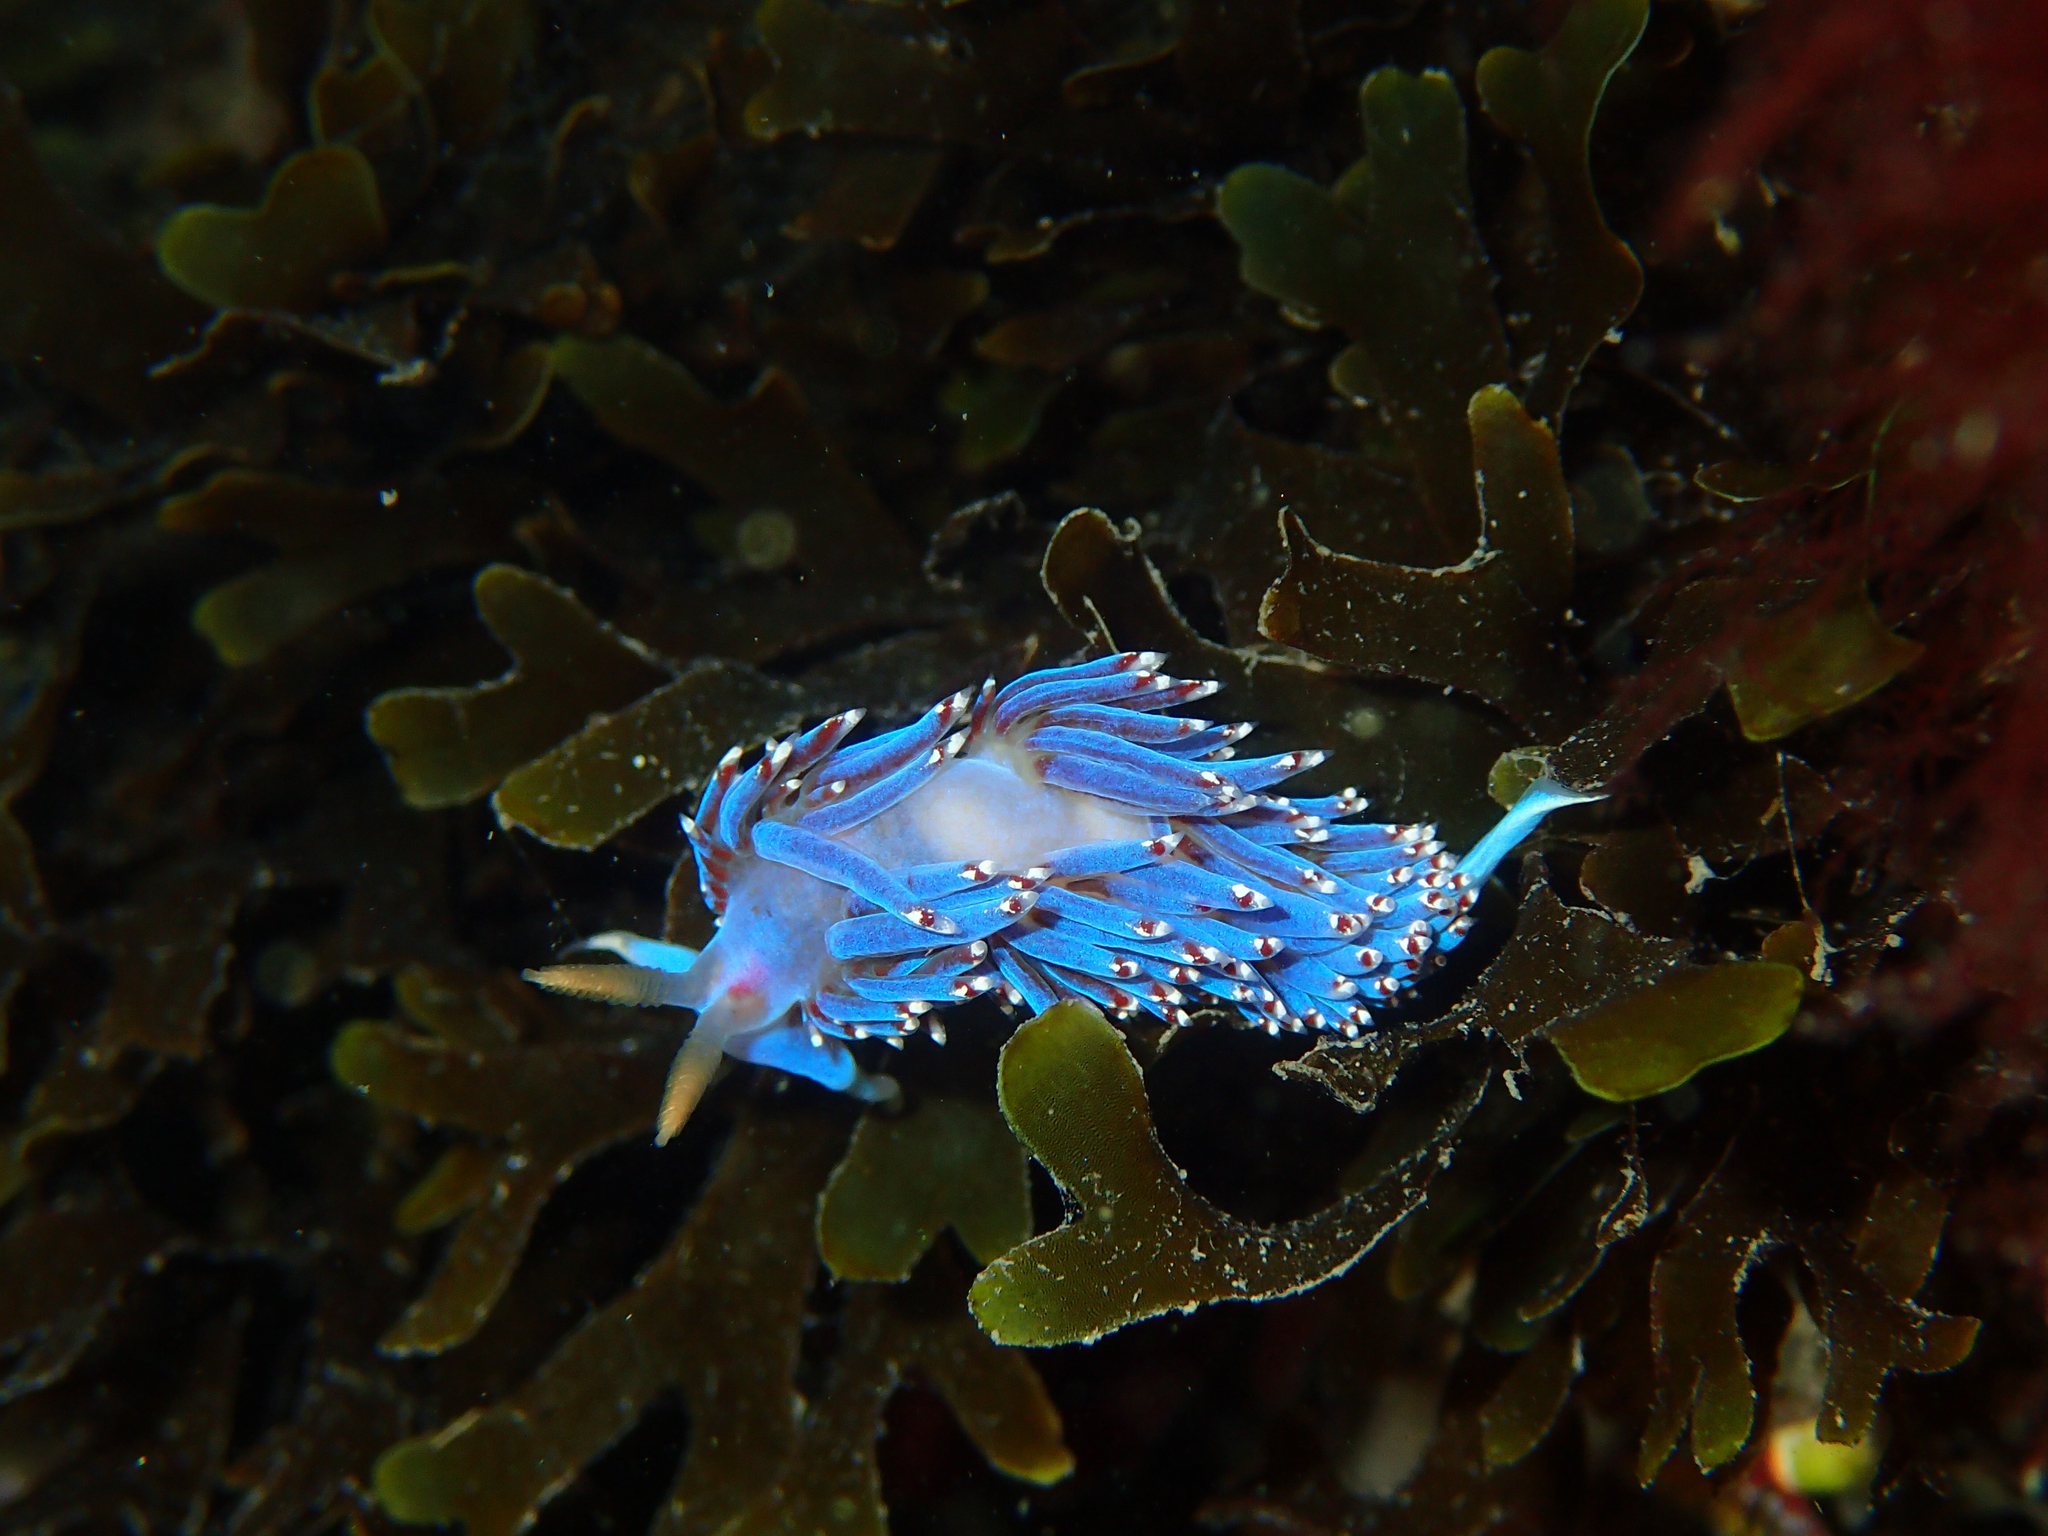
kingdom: Animalia
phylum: Mollusca
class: Gastropoda
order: Nudibranchia
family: Facelinidae
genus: Facelina
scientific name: Facelina auriculata
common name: Slender facelina
